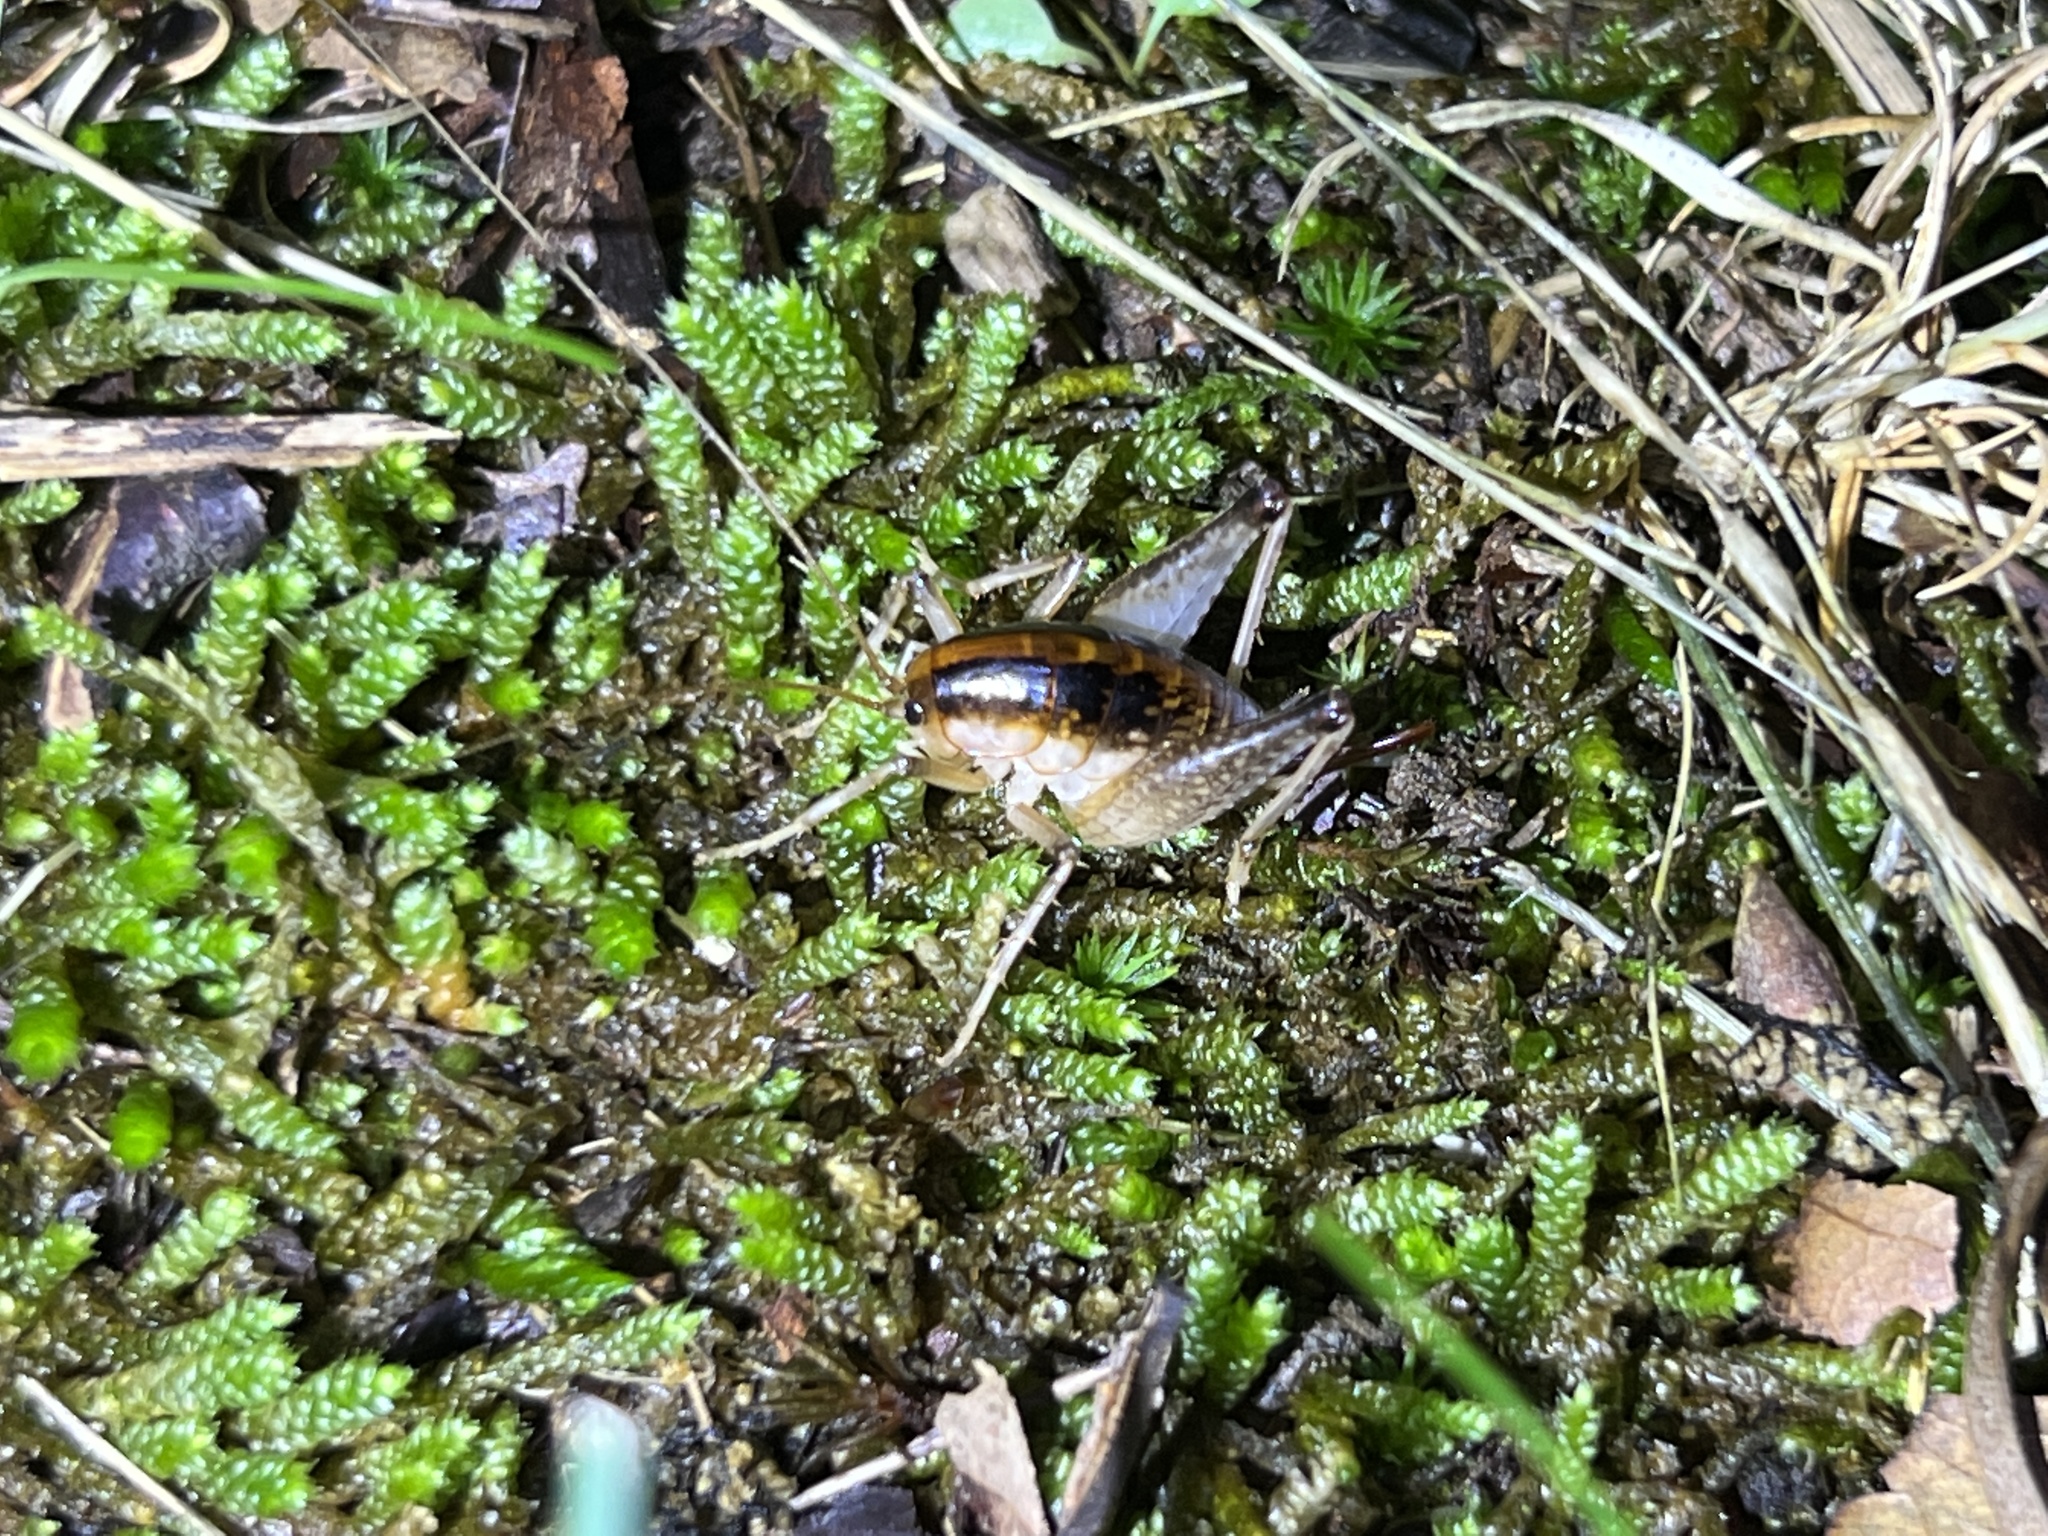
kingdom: Animalia
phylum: Arthropoda
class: Insecta
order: Orthoptera
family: Rhaphidophoridae
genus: Ceuthophilus
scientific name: Ceuthophilus latens
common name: Black-sided camel cricket
